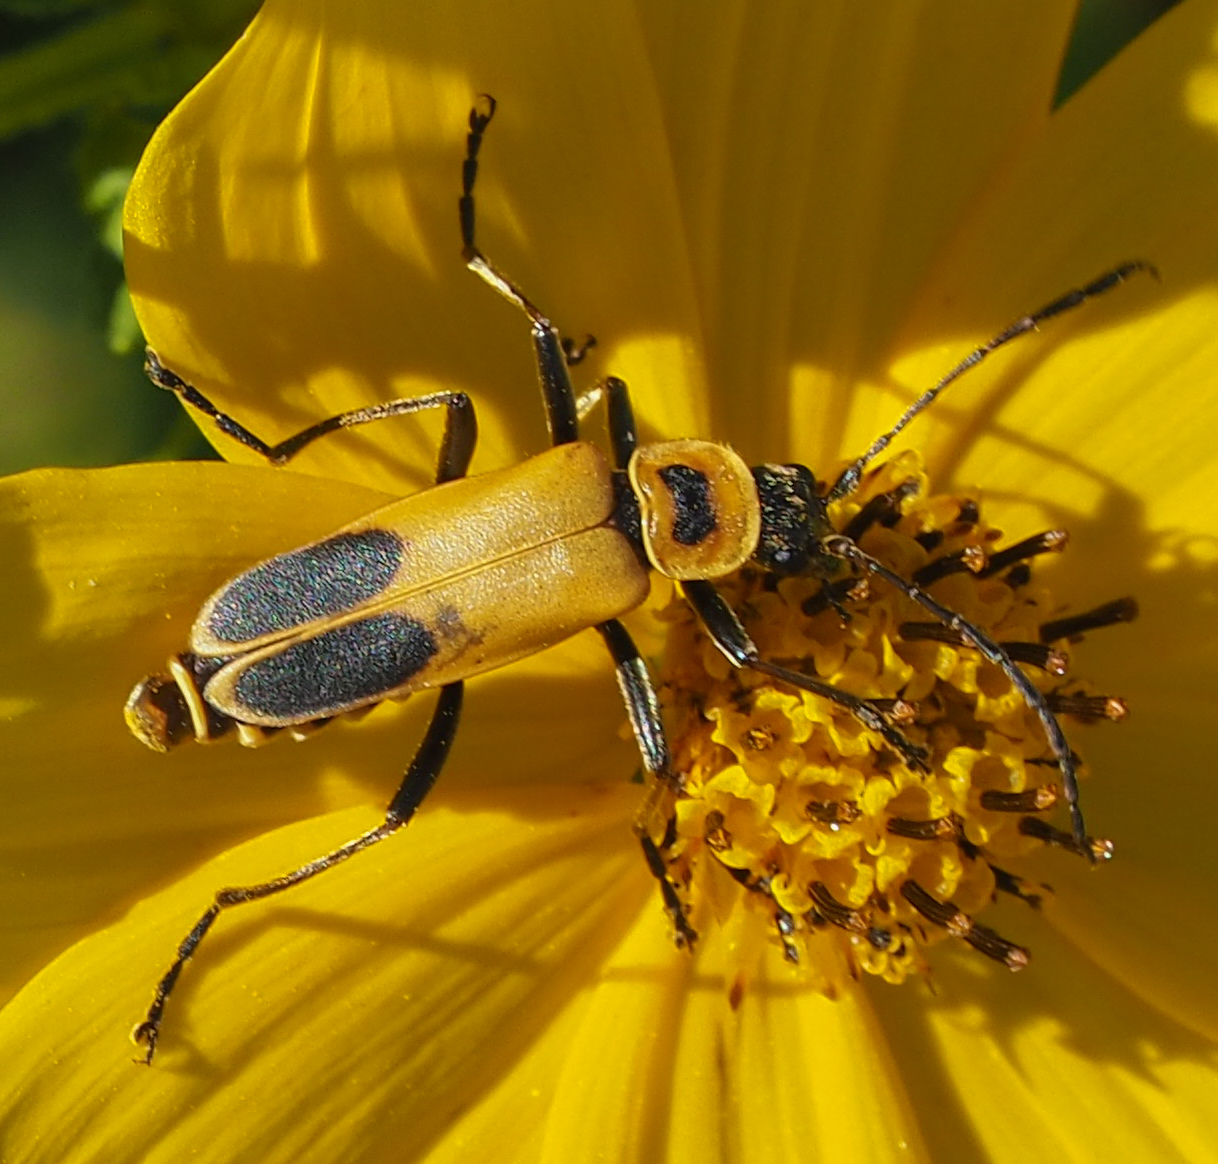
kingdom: Animalia
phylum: Arthropoda
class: Insecta
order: Coleoptera
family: Cantharidae
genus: Chauliognathus
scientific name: Chauliognathus pensylvanicus
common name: Goldenrod soldier beetle
